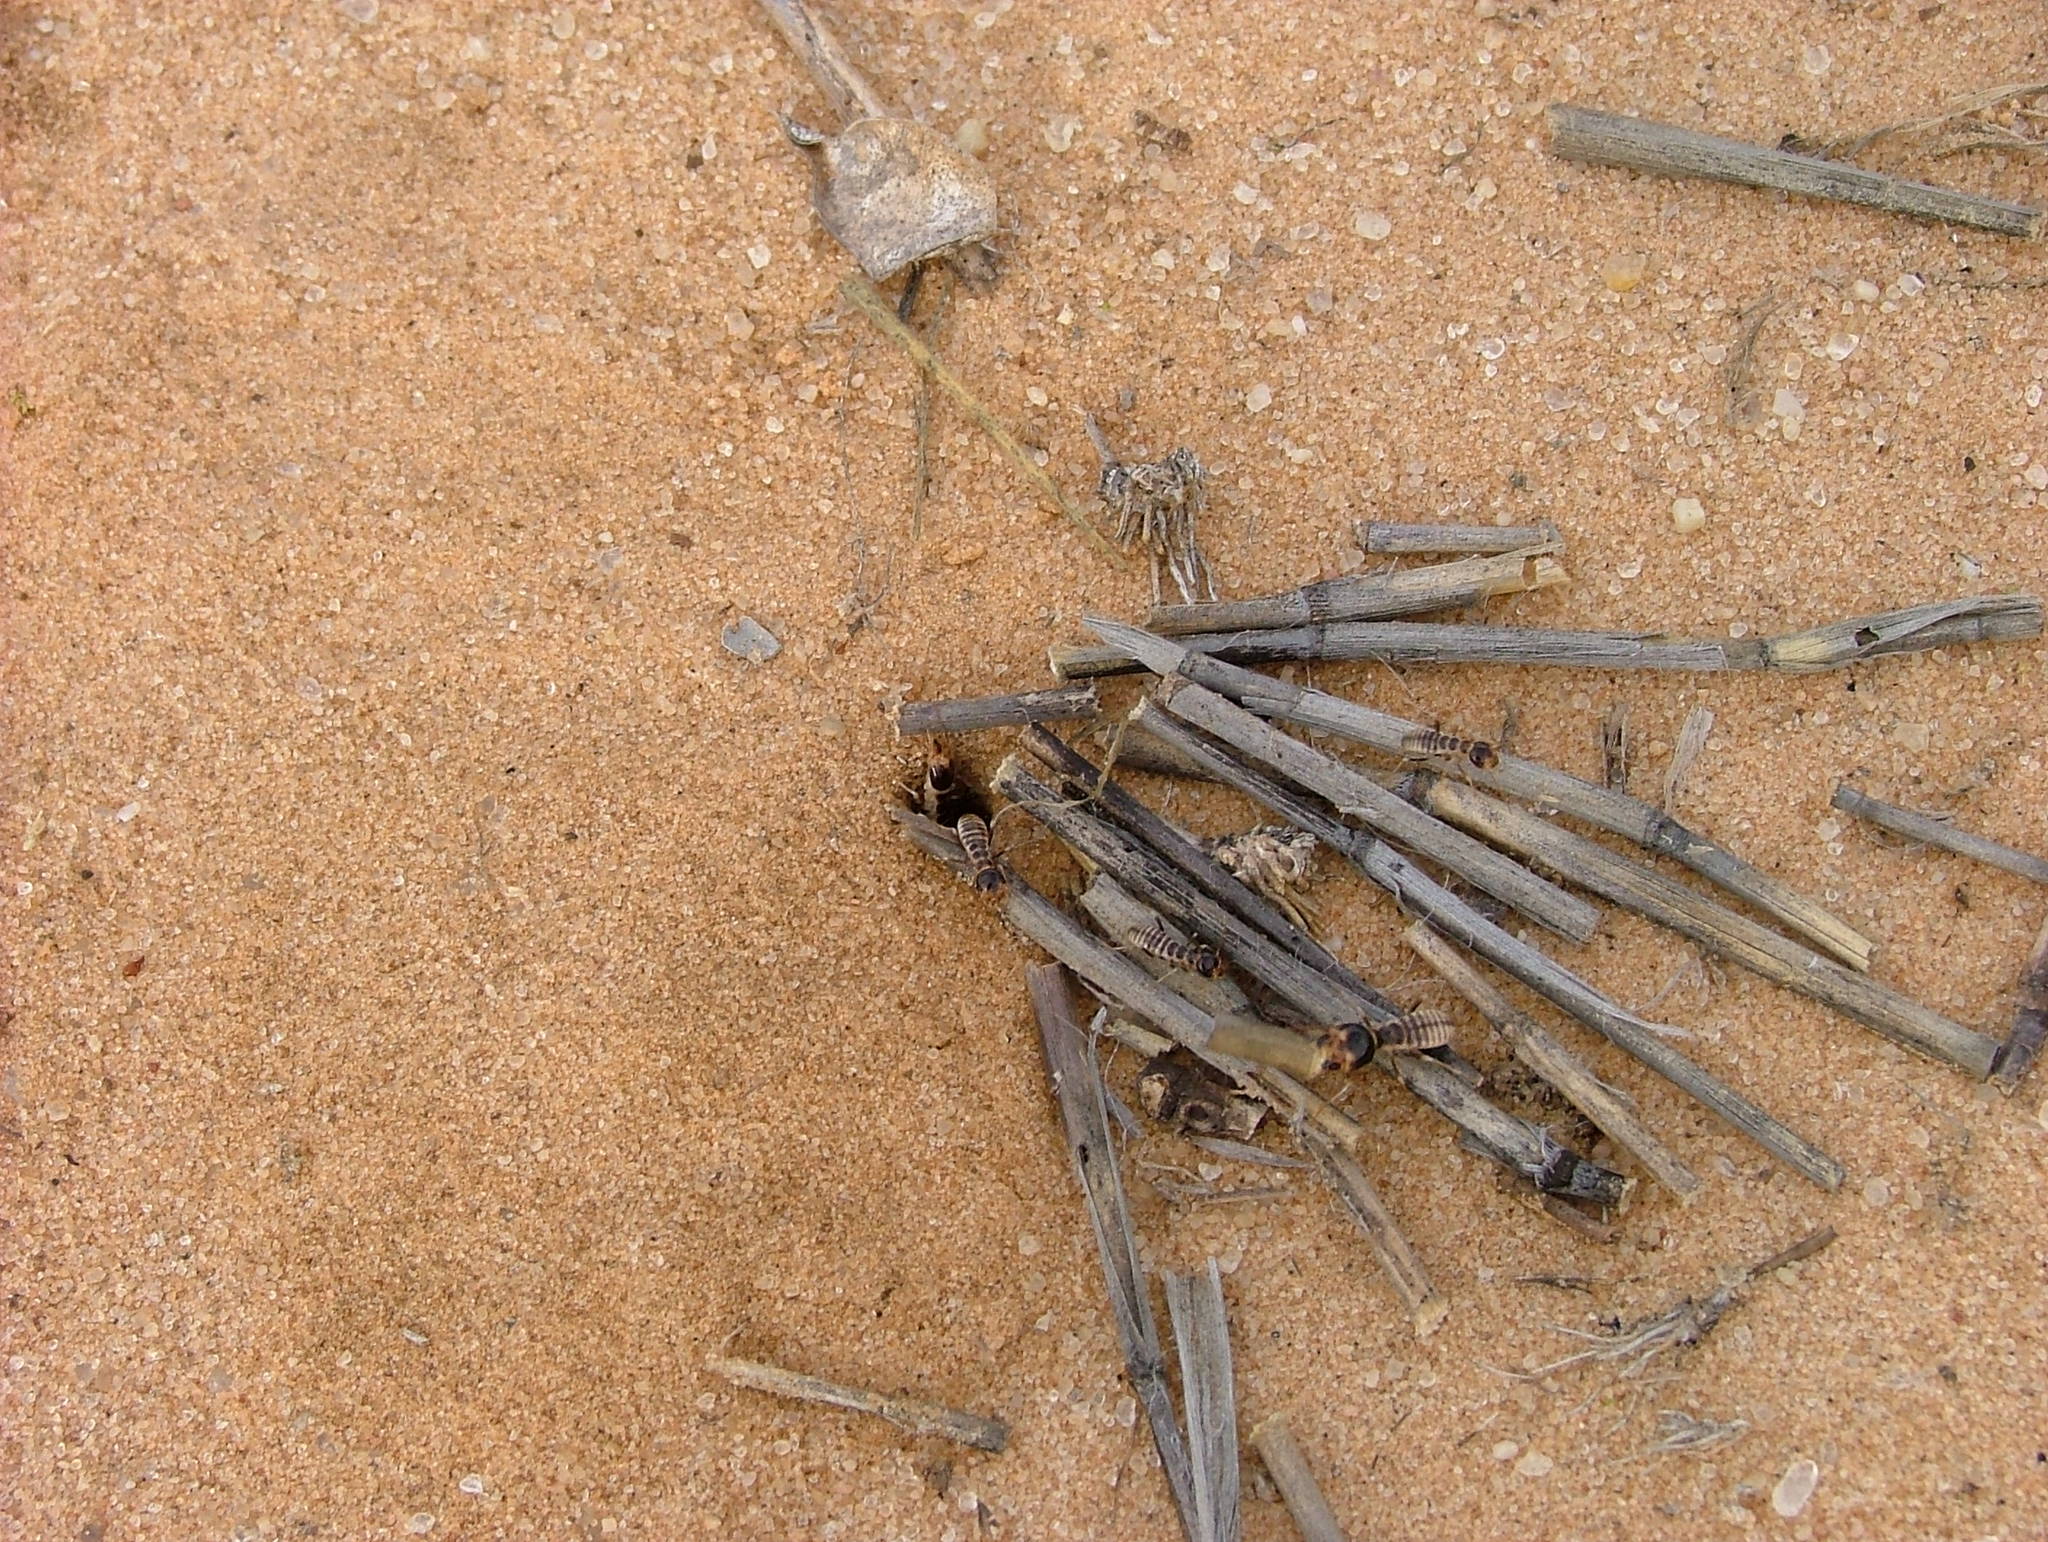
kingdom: Animalia
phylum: Arthropoda
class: Insecta
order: Blattodea
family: Hodotermitidae
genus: Hodotermes
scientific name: Hodotermes mossambicus
